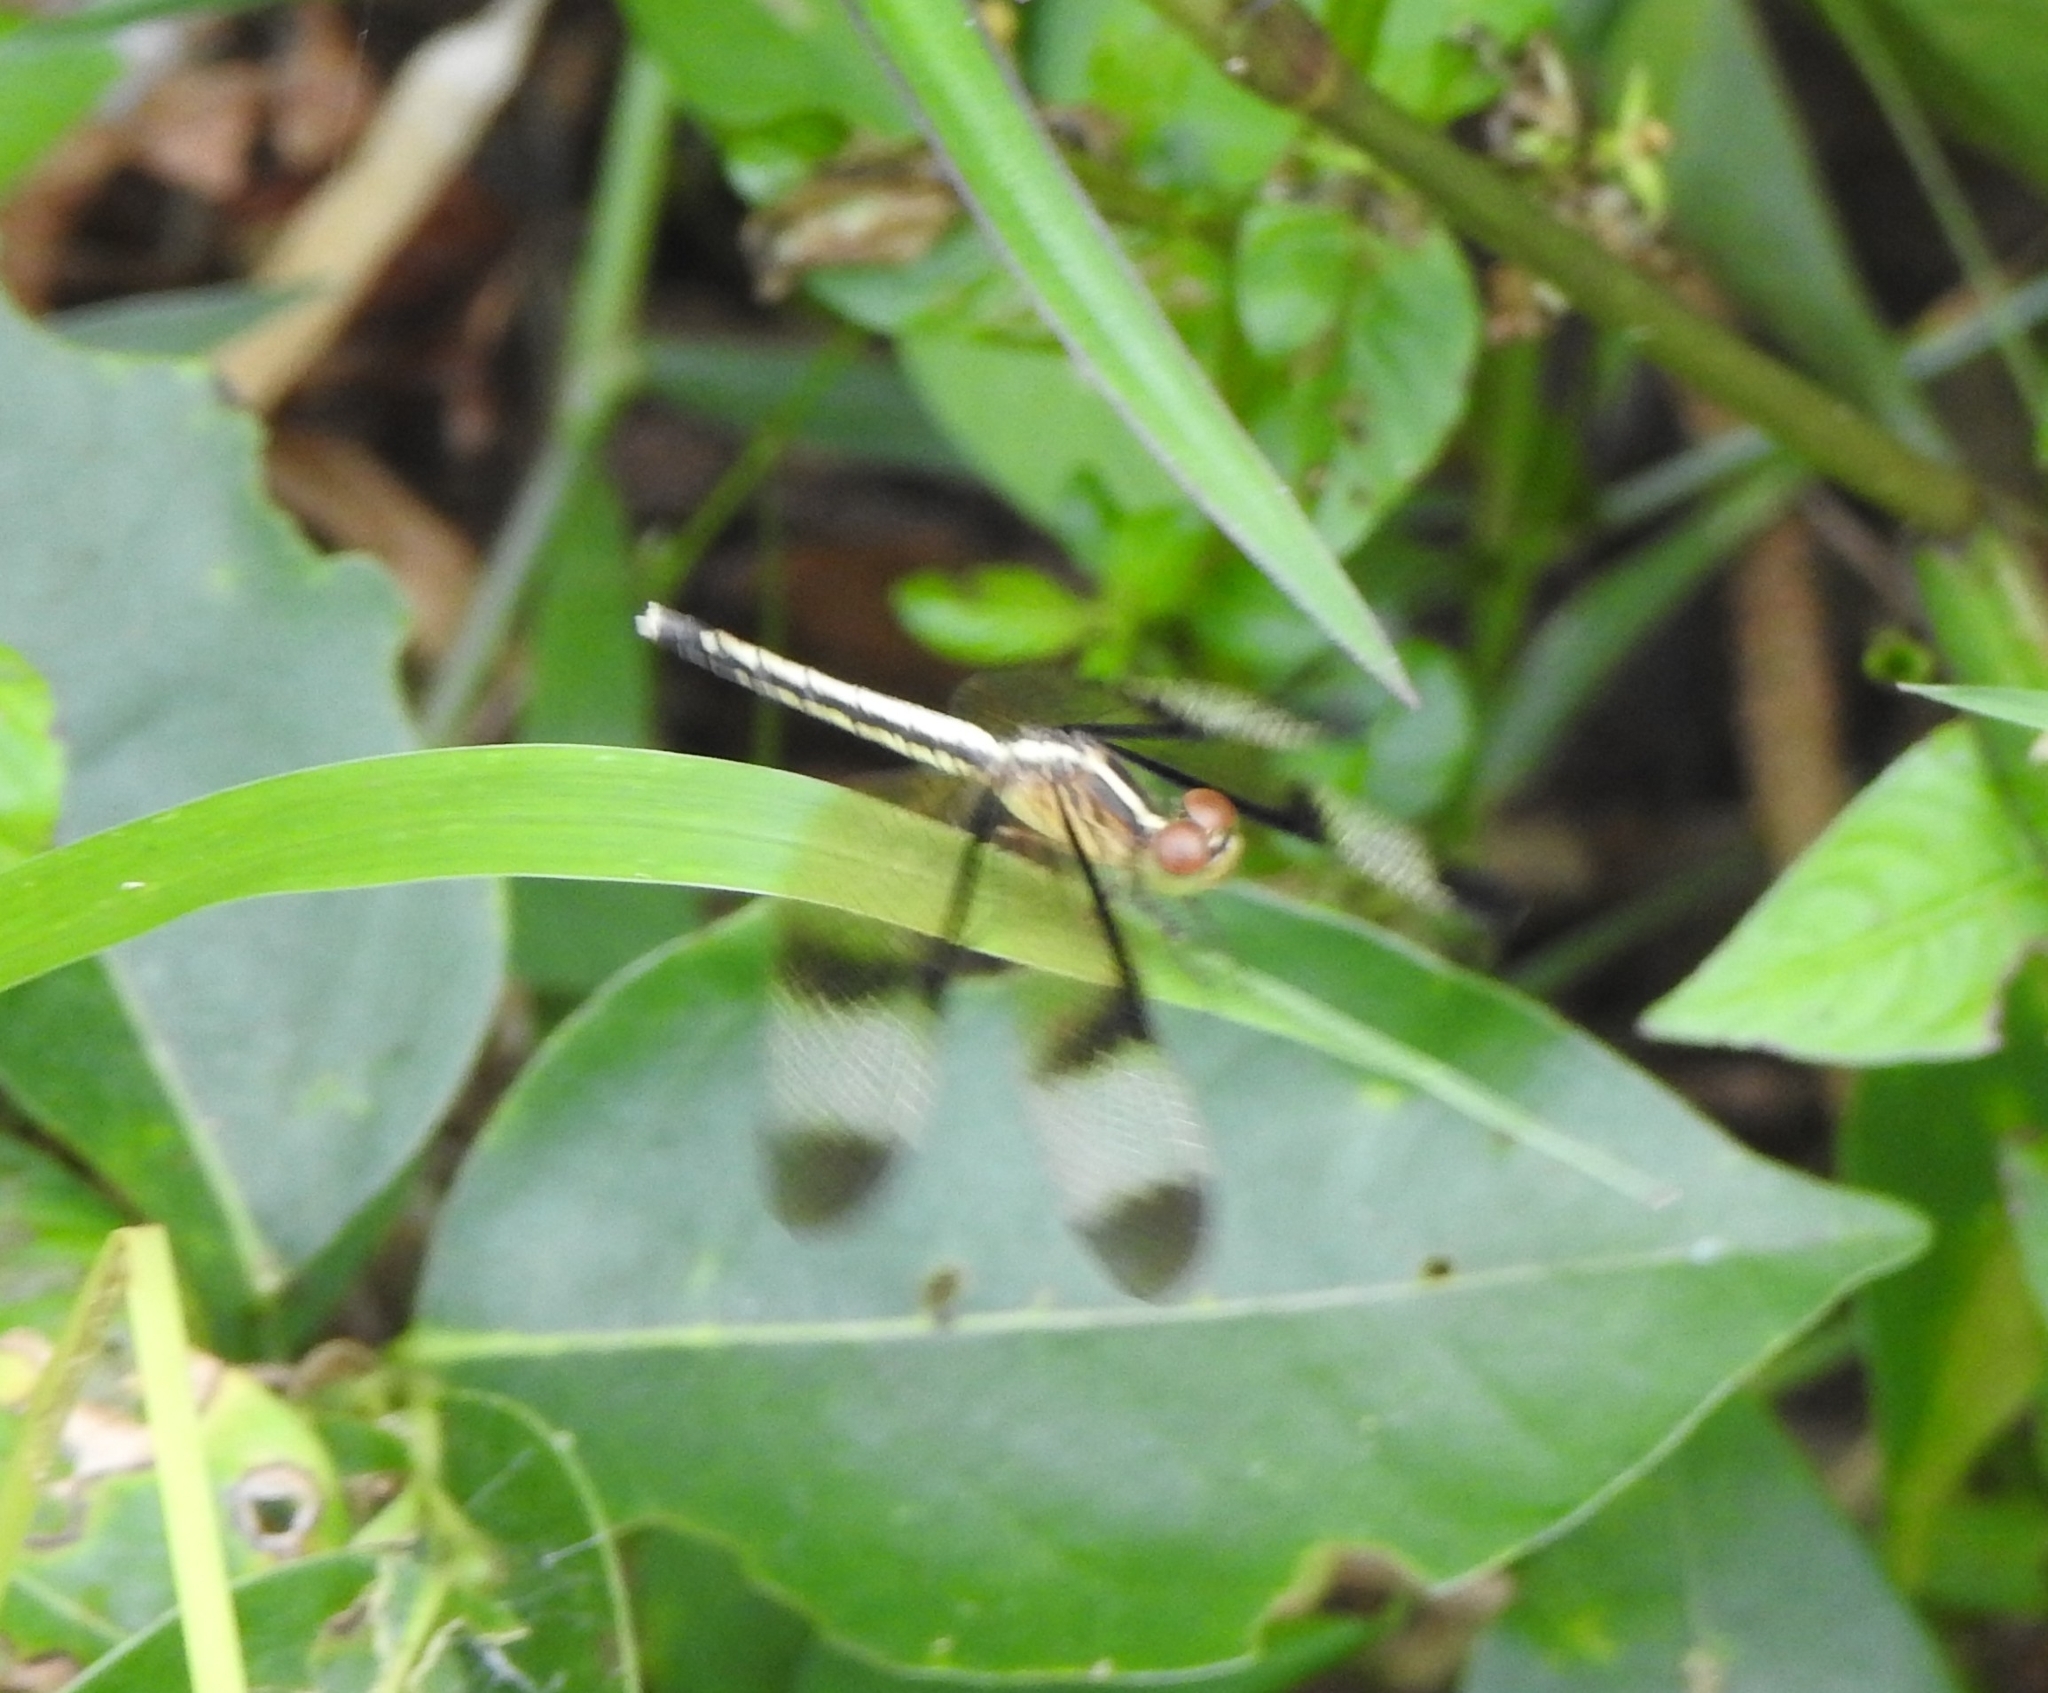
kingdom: Animalia
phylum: Arthropoda
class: Insecta
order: Odonata
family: Libellulidae
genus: Neurothemis
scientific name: Neurothemis tullia
